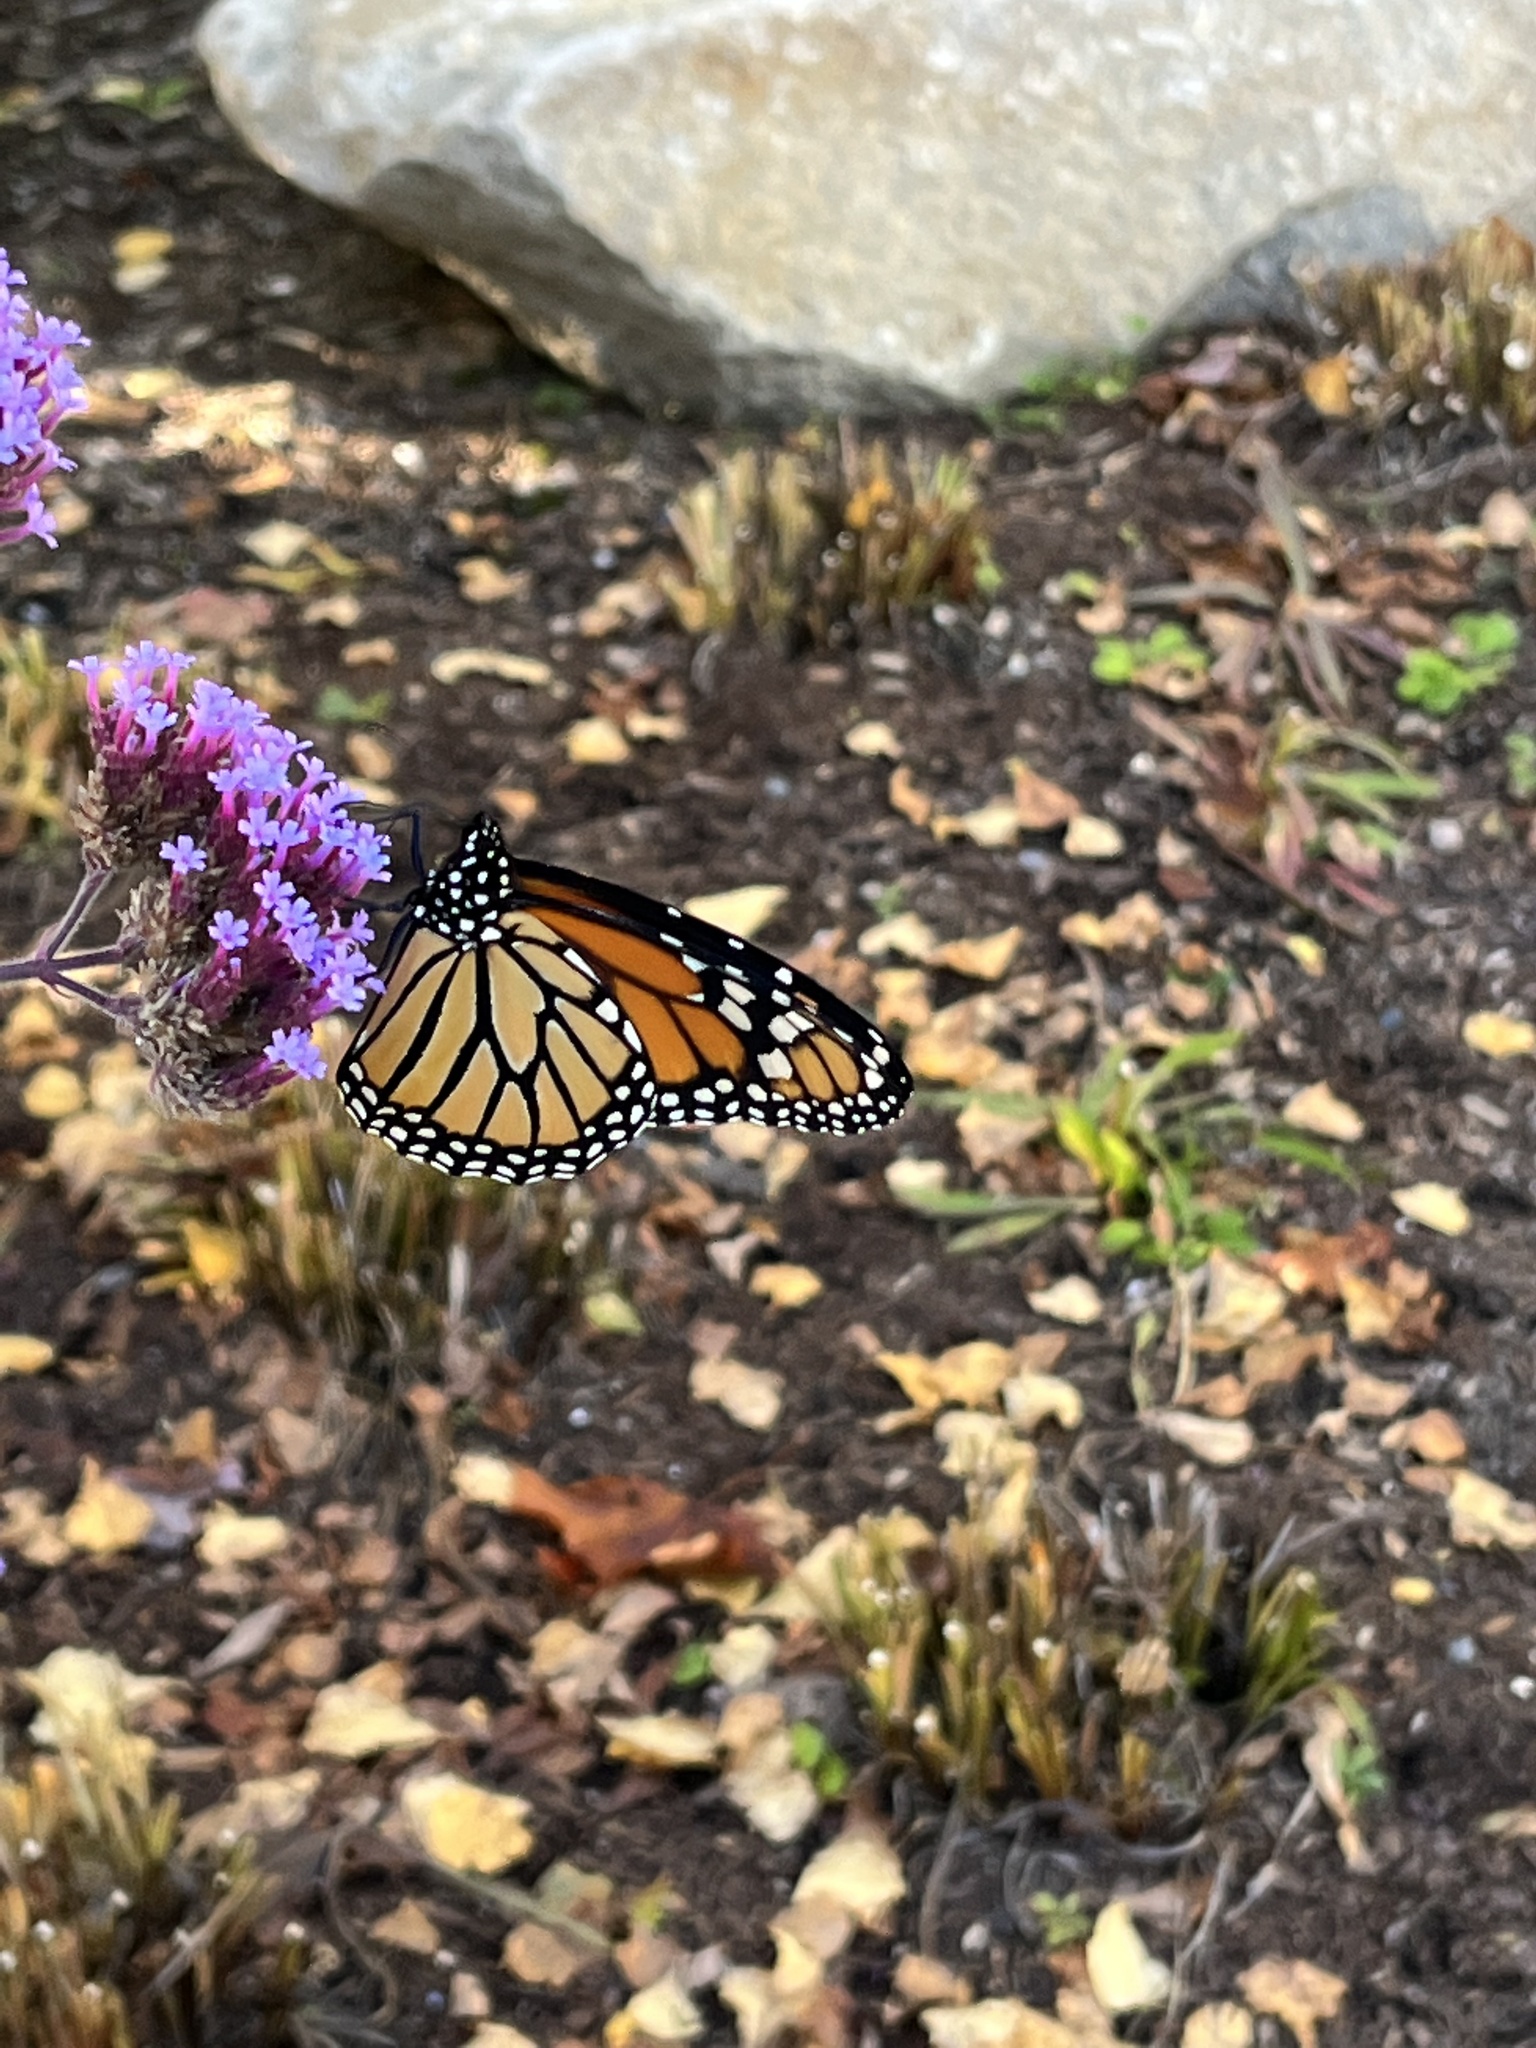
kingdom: Animalia
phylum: Arthropoda
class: Insecta
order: Lepidoptera
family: Nymphalidae
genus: Danaus
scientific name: Danaus plexippus
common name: Monarch
